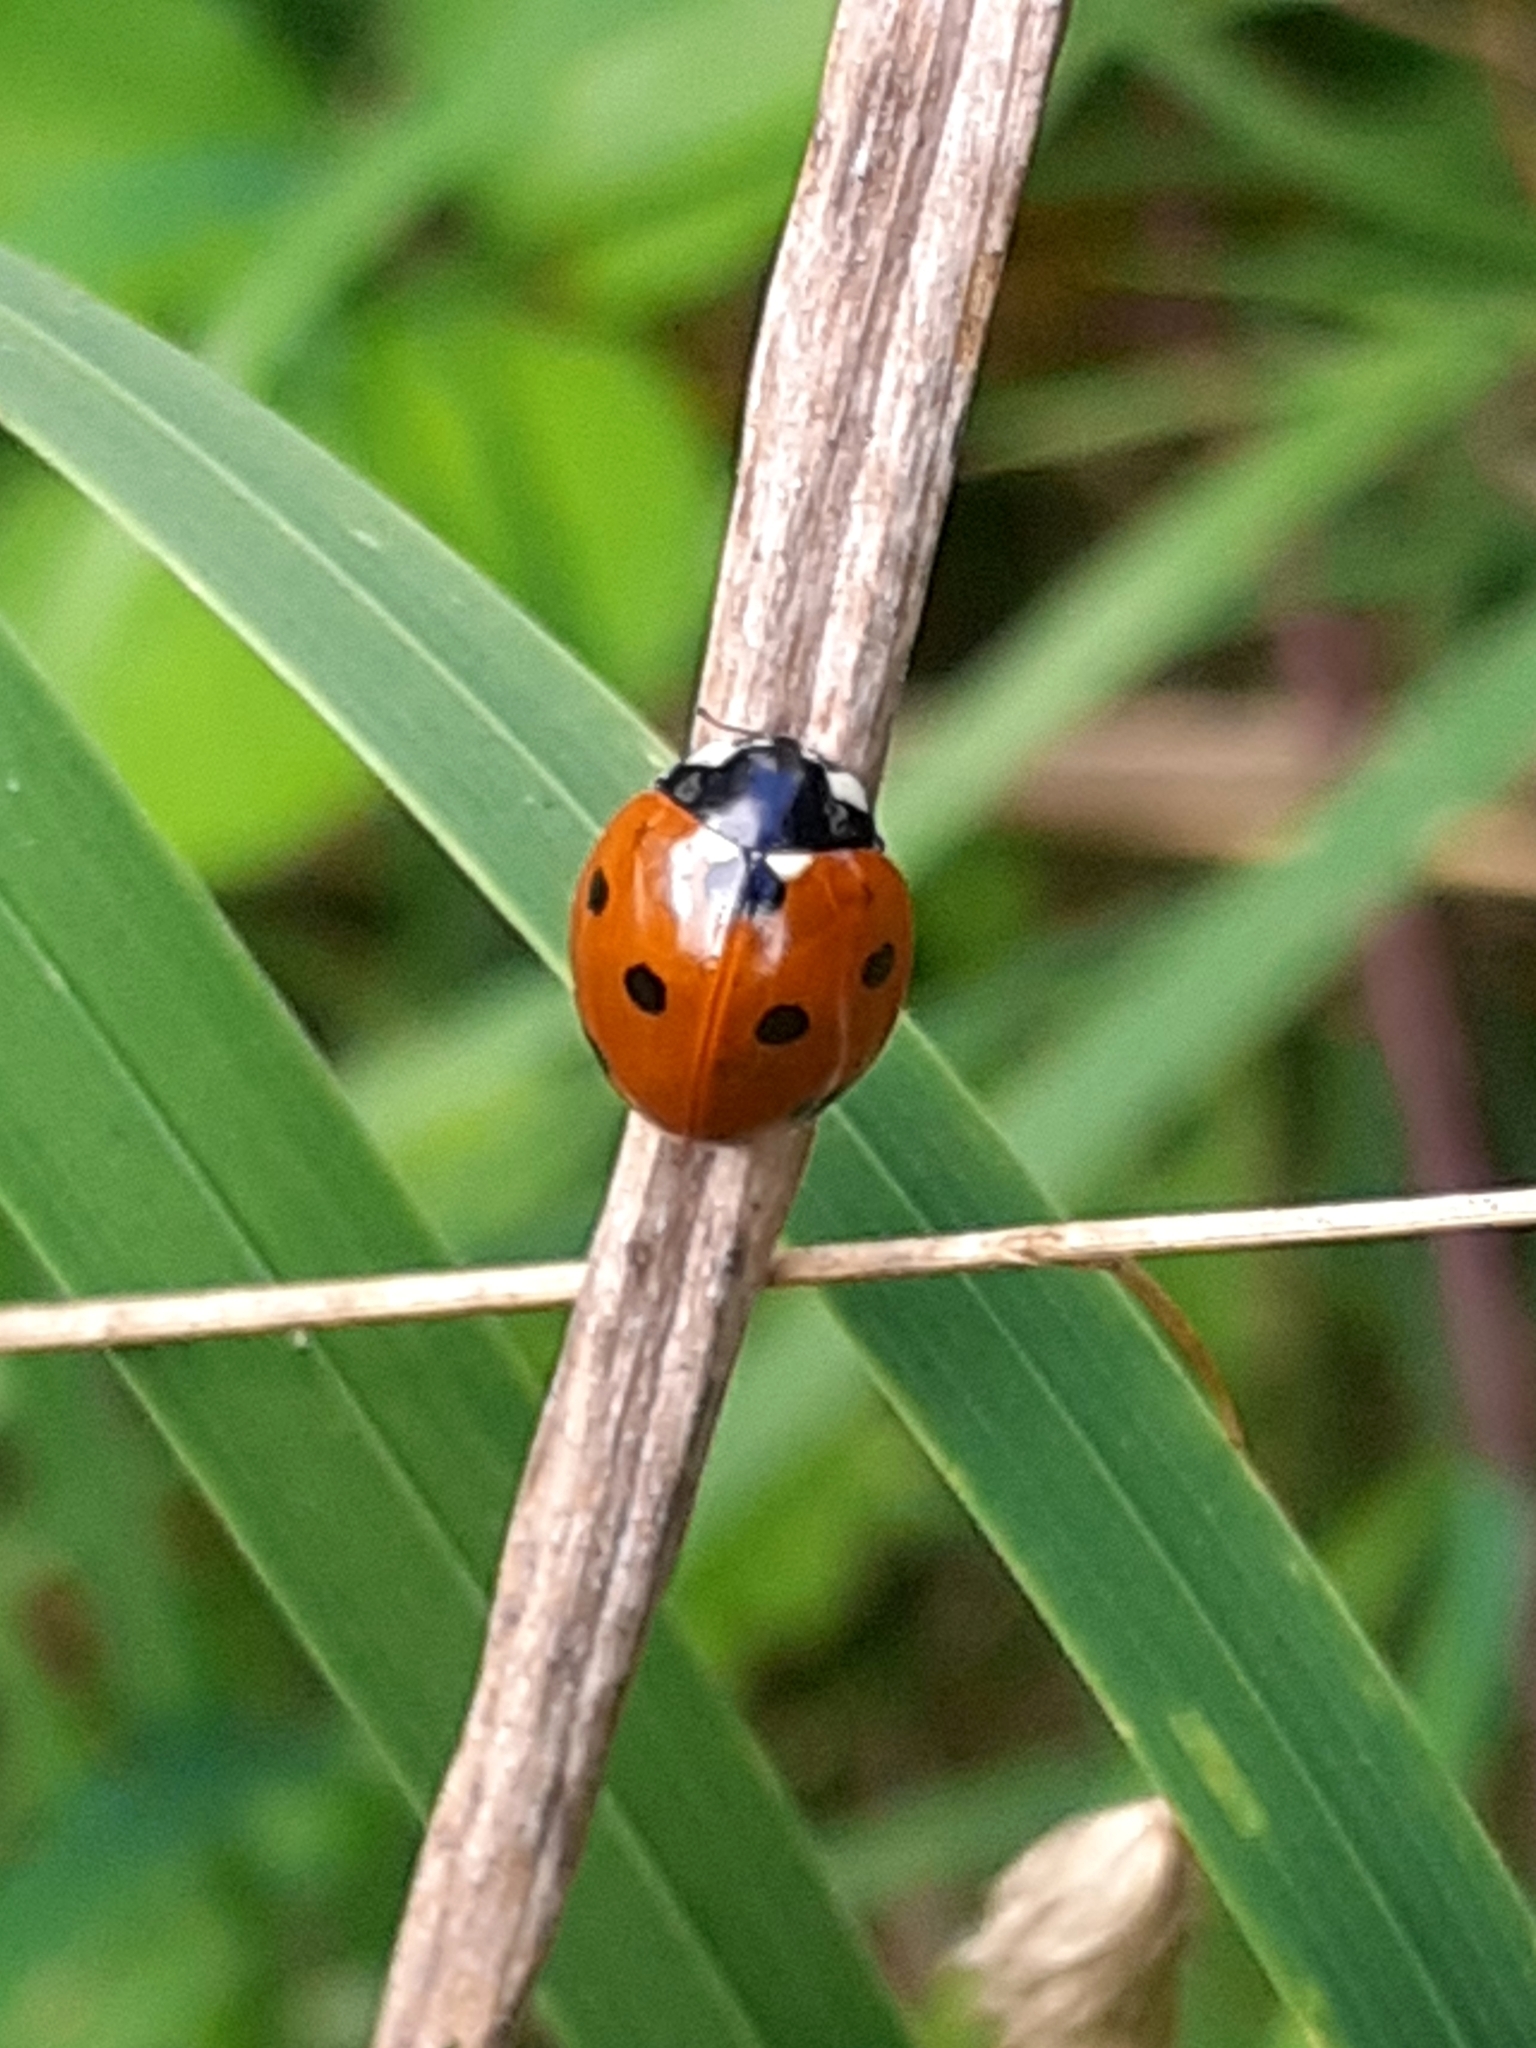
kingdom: Animalia
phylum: Arthropoda
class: Insecta
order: Coleoptera
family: Coccinellidae
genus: Coccinella
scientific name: Coccinella septempunctata
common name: Sevenspotted lady beetle
